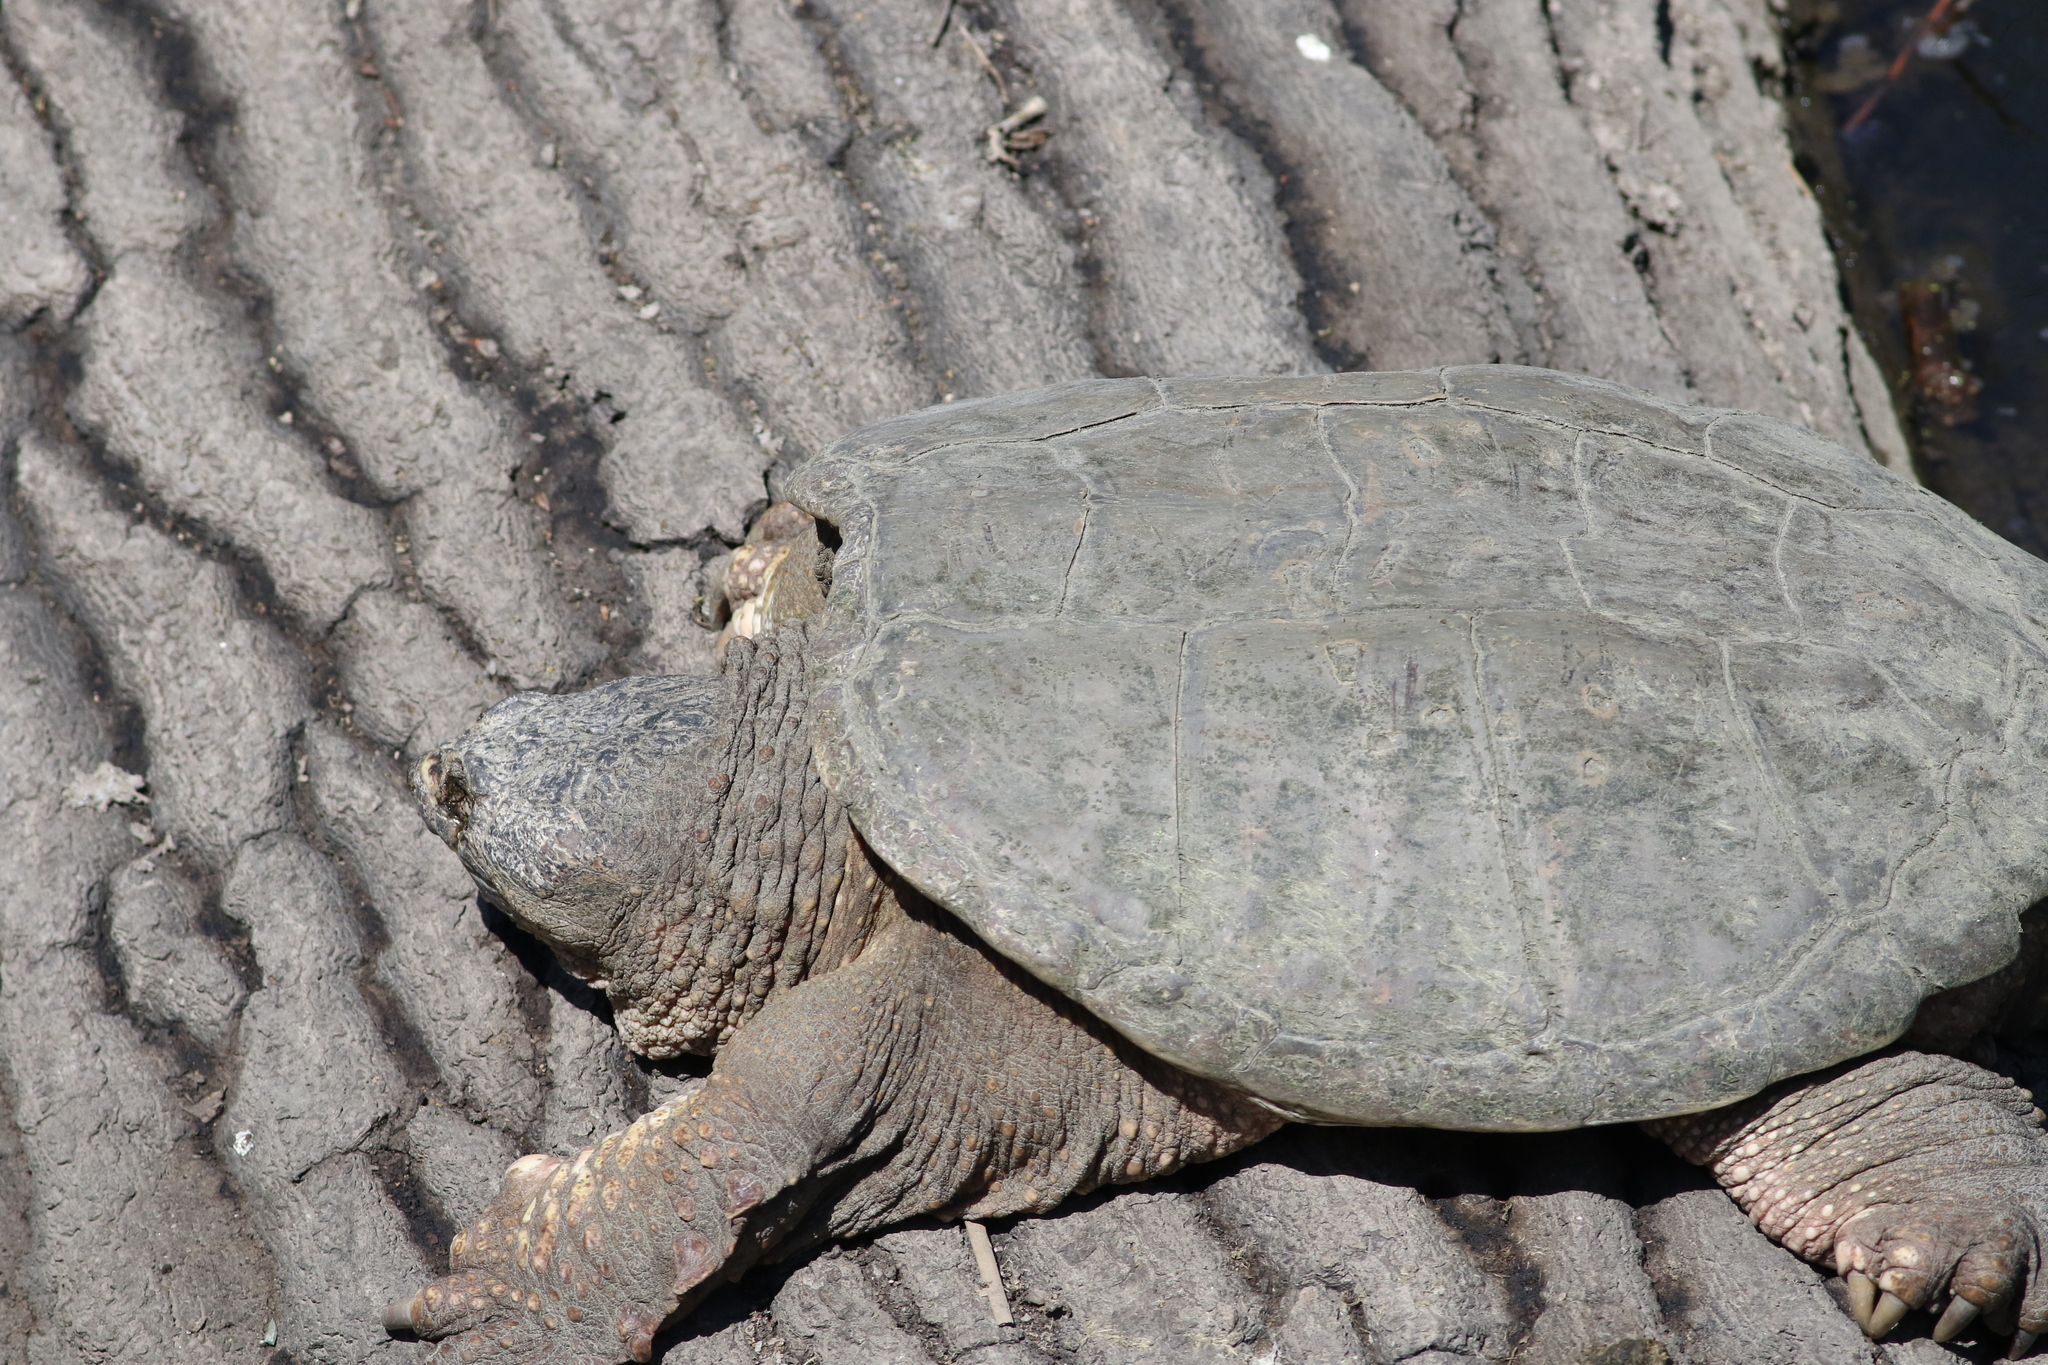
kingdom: Animalia
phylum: Chordata
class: Testudines
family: Chelydridae
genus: Chelydra
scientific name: Chelydra serpentina
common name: Common snapping turtle
